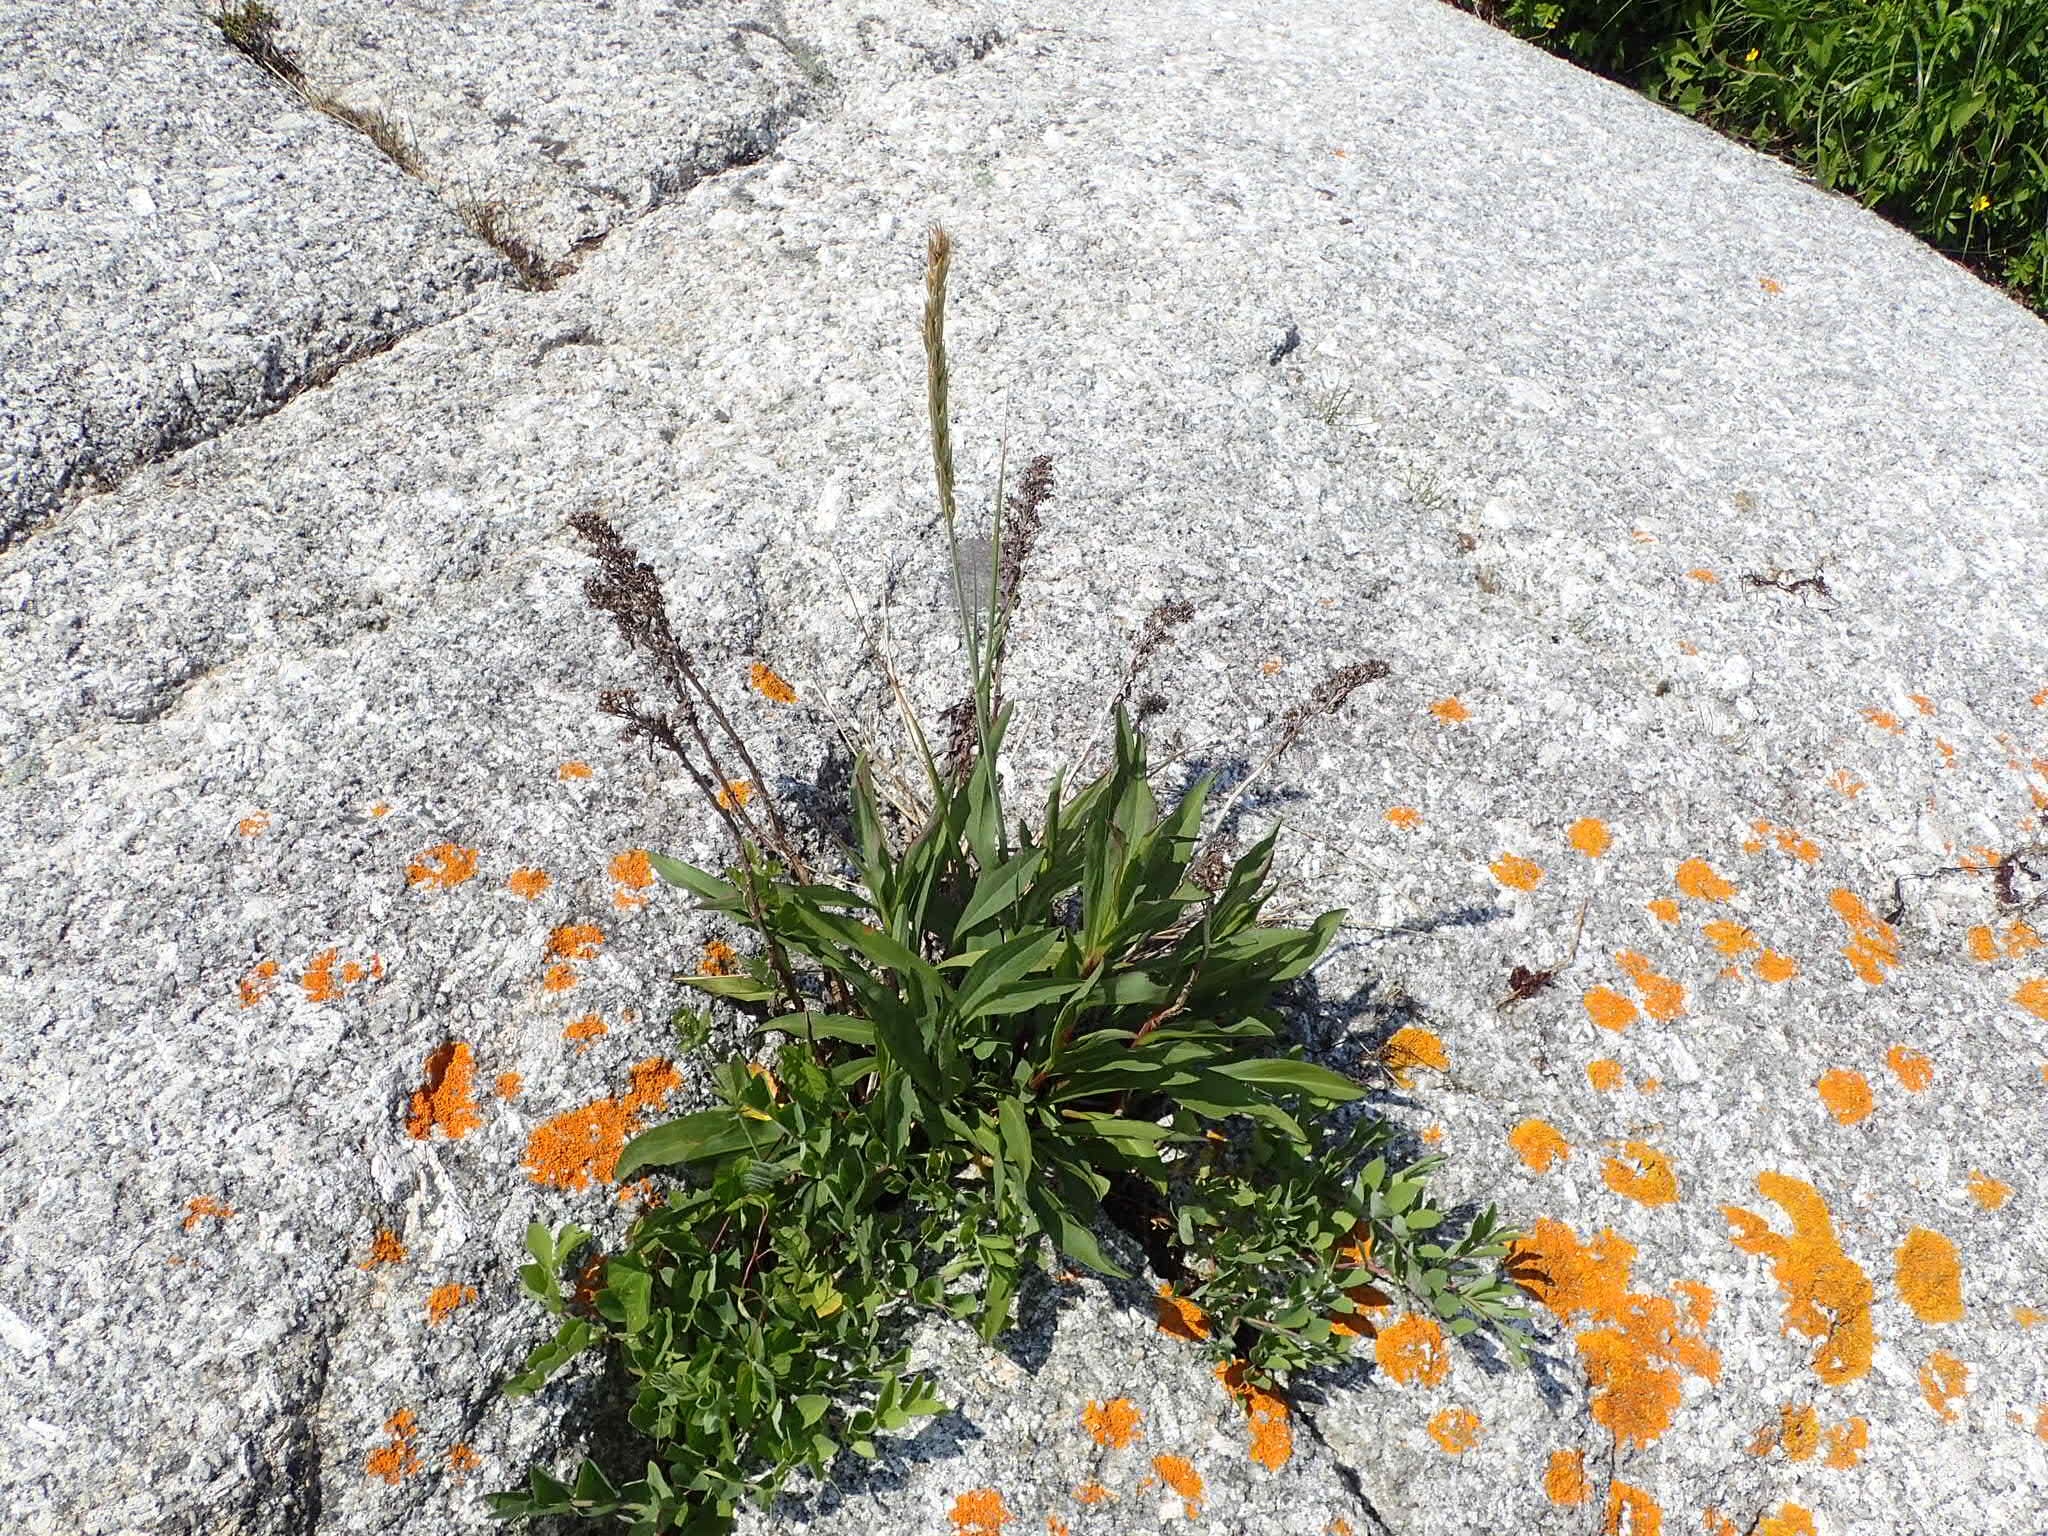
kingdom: Plantae
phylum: Tracheophyta
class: Magnoliopsida
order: Lamiales
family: Plantaginaceae
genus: Plantago
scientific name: Plantago maritima
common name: Sea plantain
